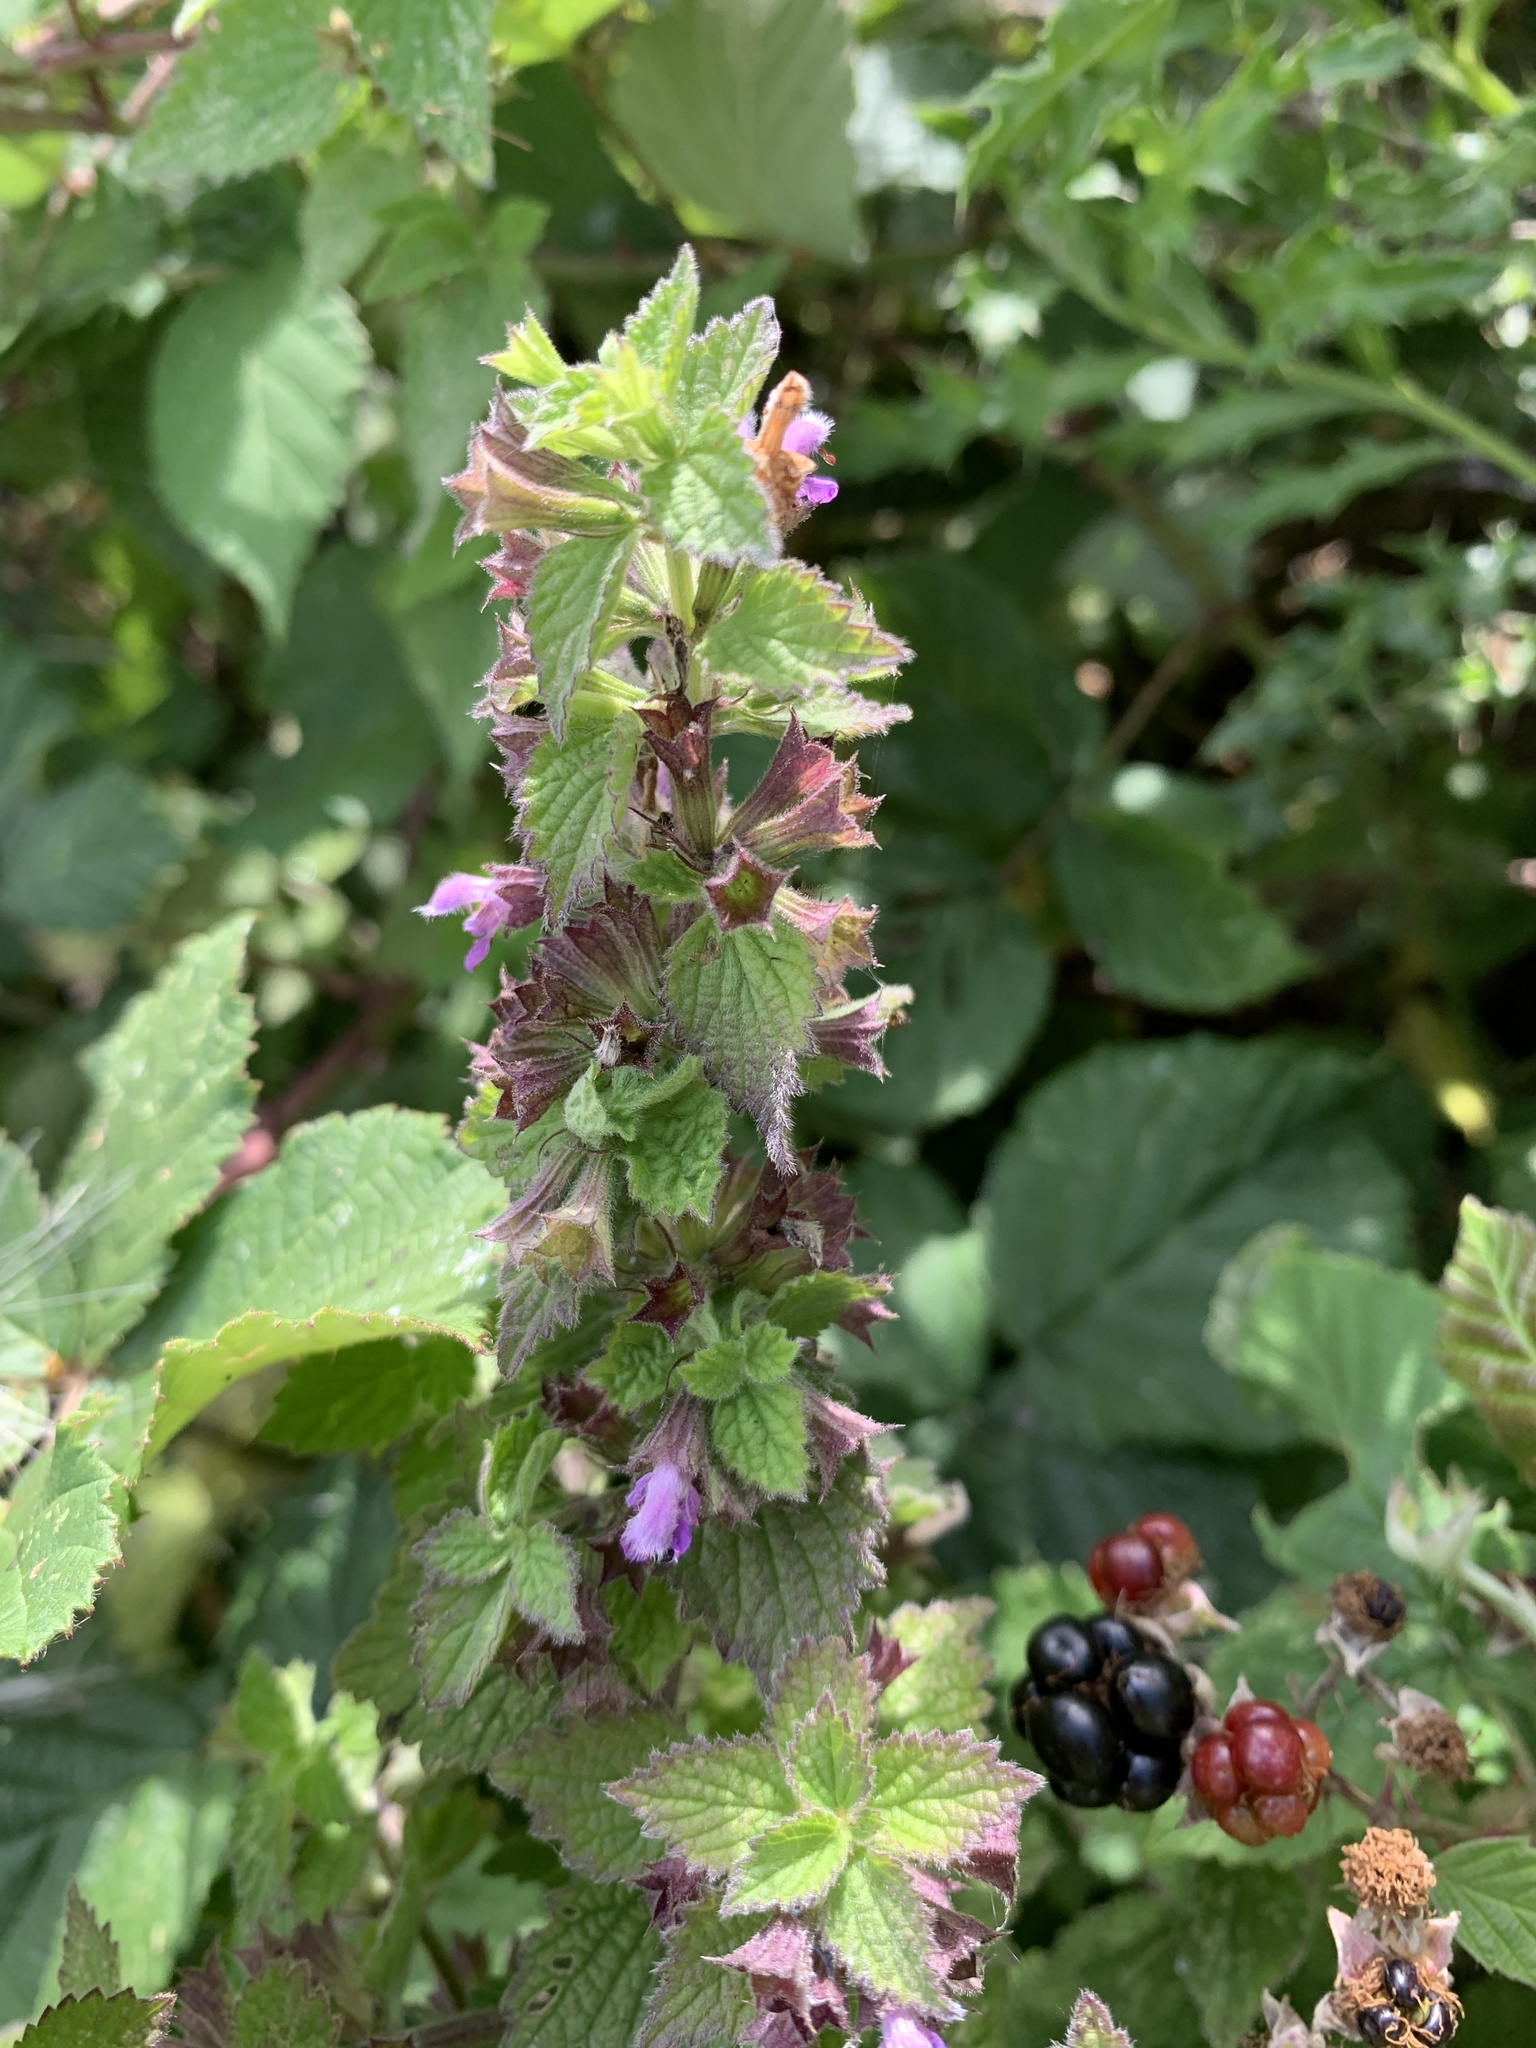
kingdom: Plantae
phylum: Tracheophyta
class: Magnoliopsida
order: Lamiales
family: Lamiaceae
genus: Ballota
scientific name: Ballota nigra
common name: Black horehound
